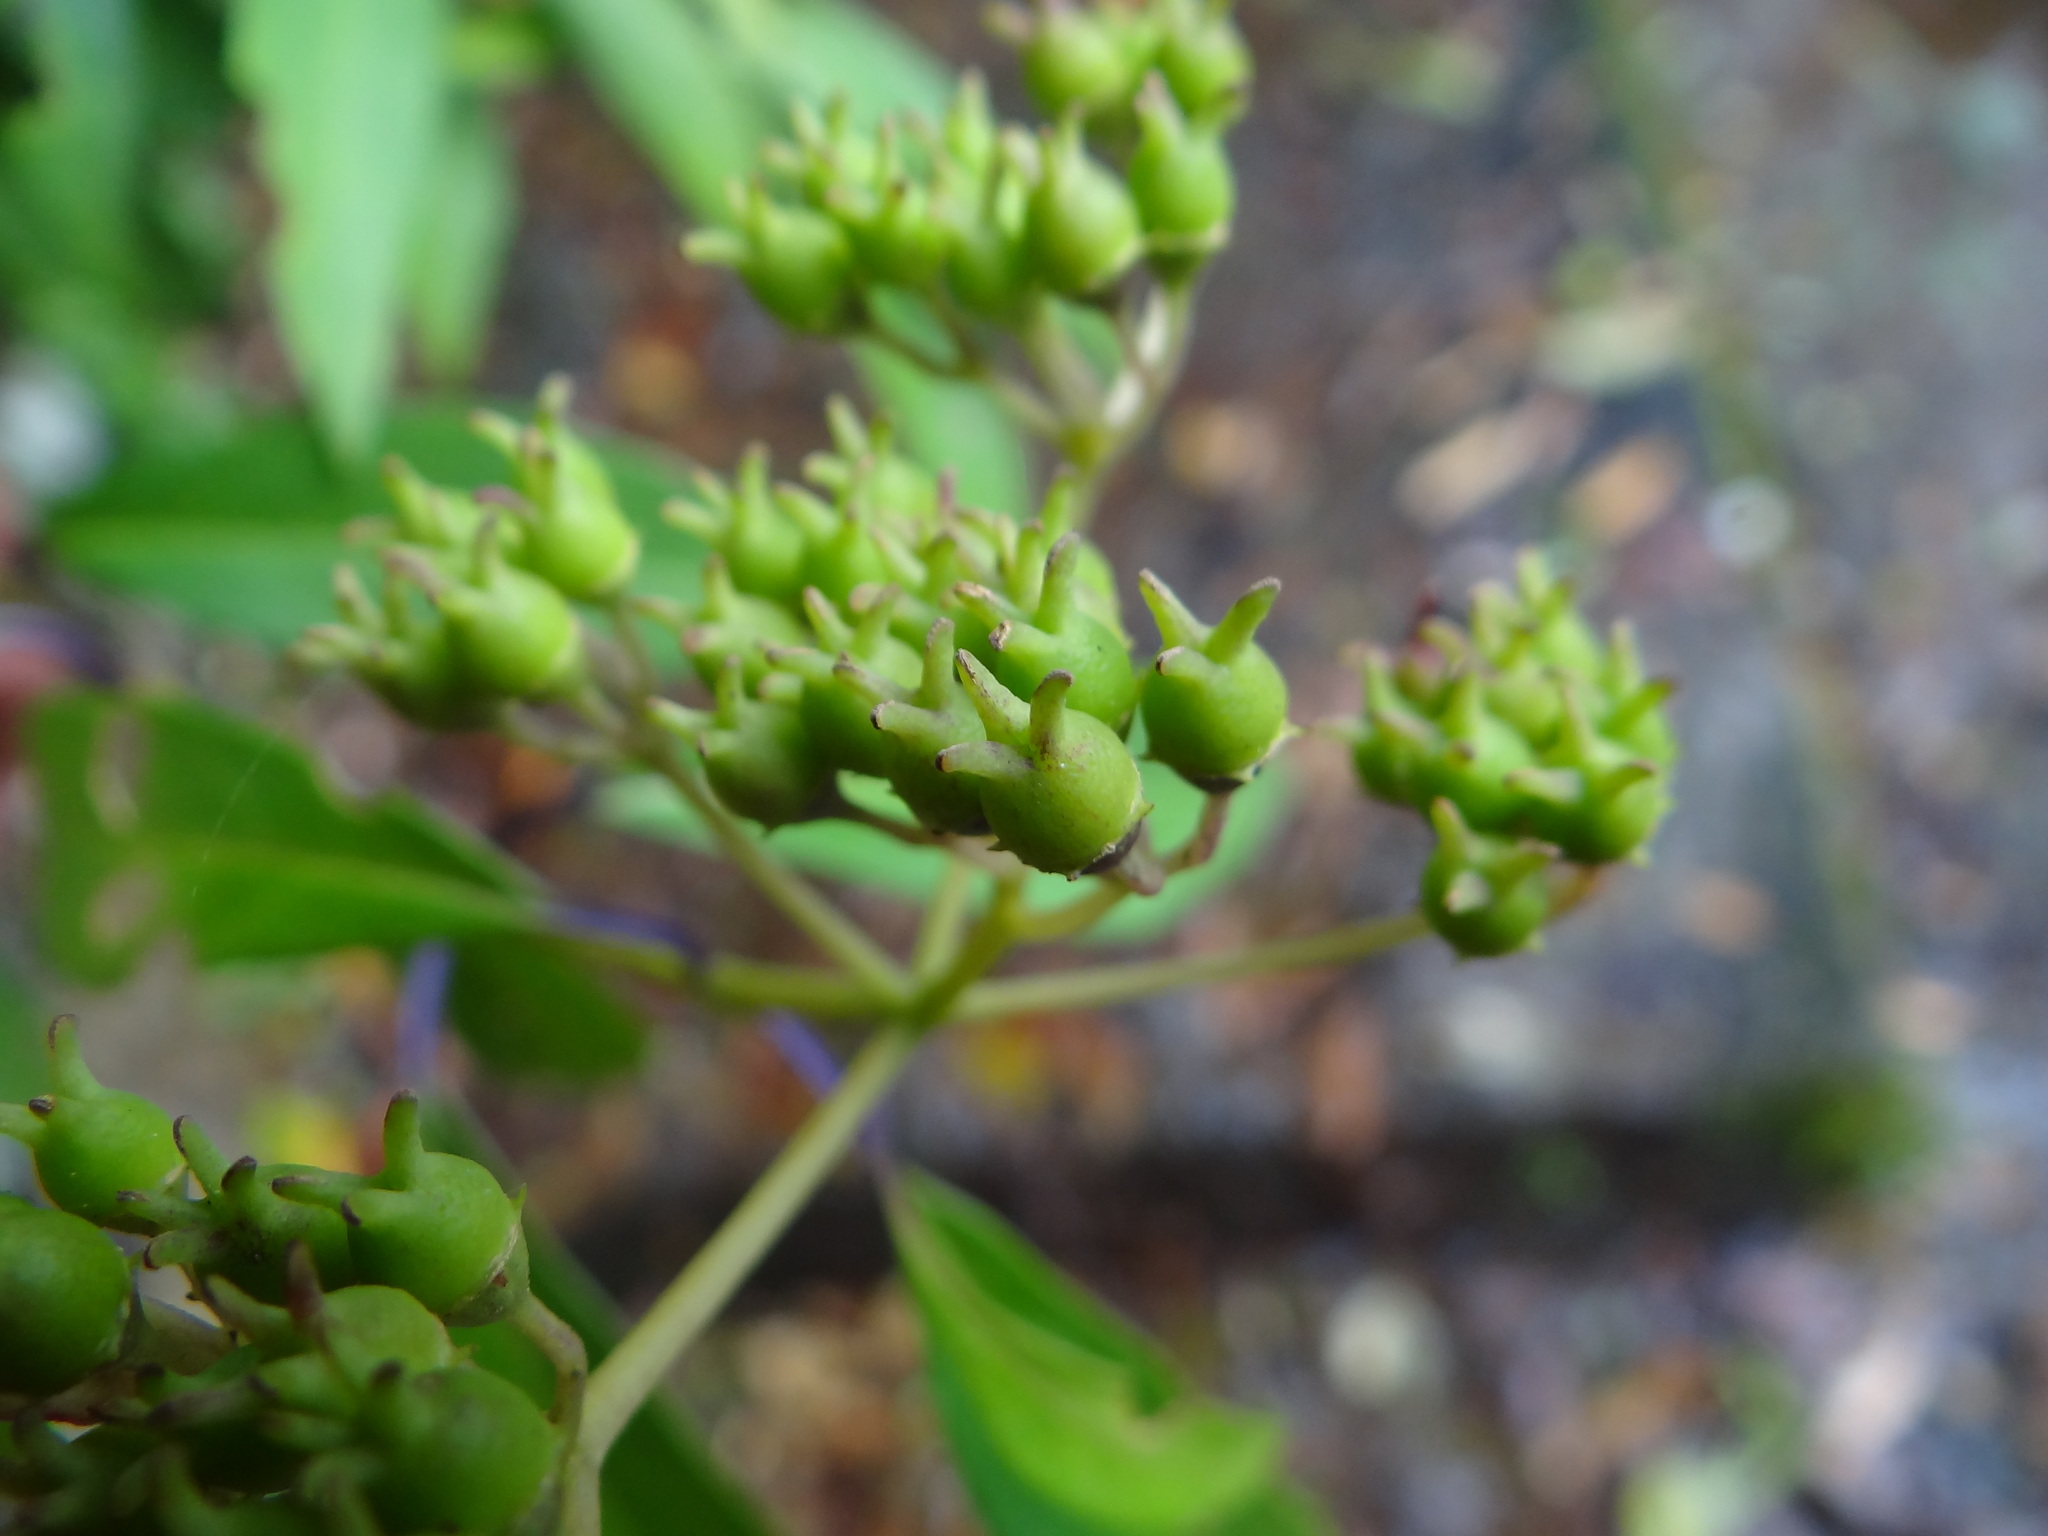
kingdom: Plantae
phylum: Tracheophyta
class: Magnoliopsida
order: Cornales
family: Hydrangeaceae
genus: Hydrangea
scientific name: Hydrangea chinensis
